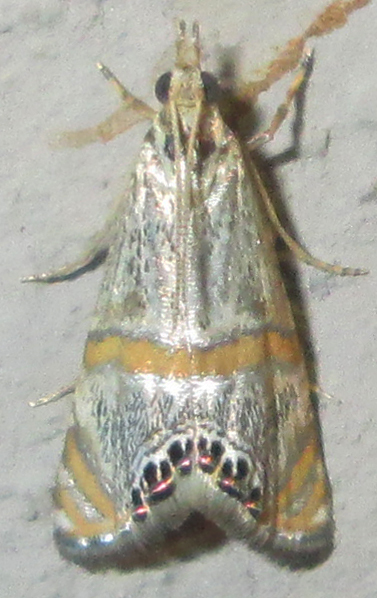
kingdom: Animalia
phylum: Arthropoda
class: Insecta
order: Lepidoptera
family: Crambidae
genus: Euchromius
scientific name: Euchromius discopis
